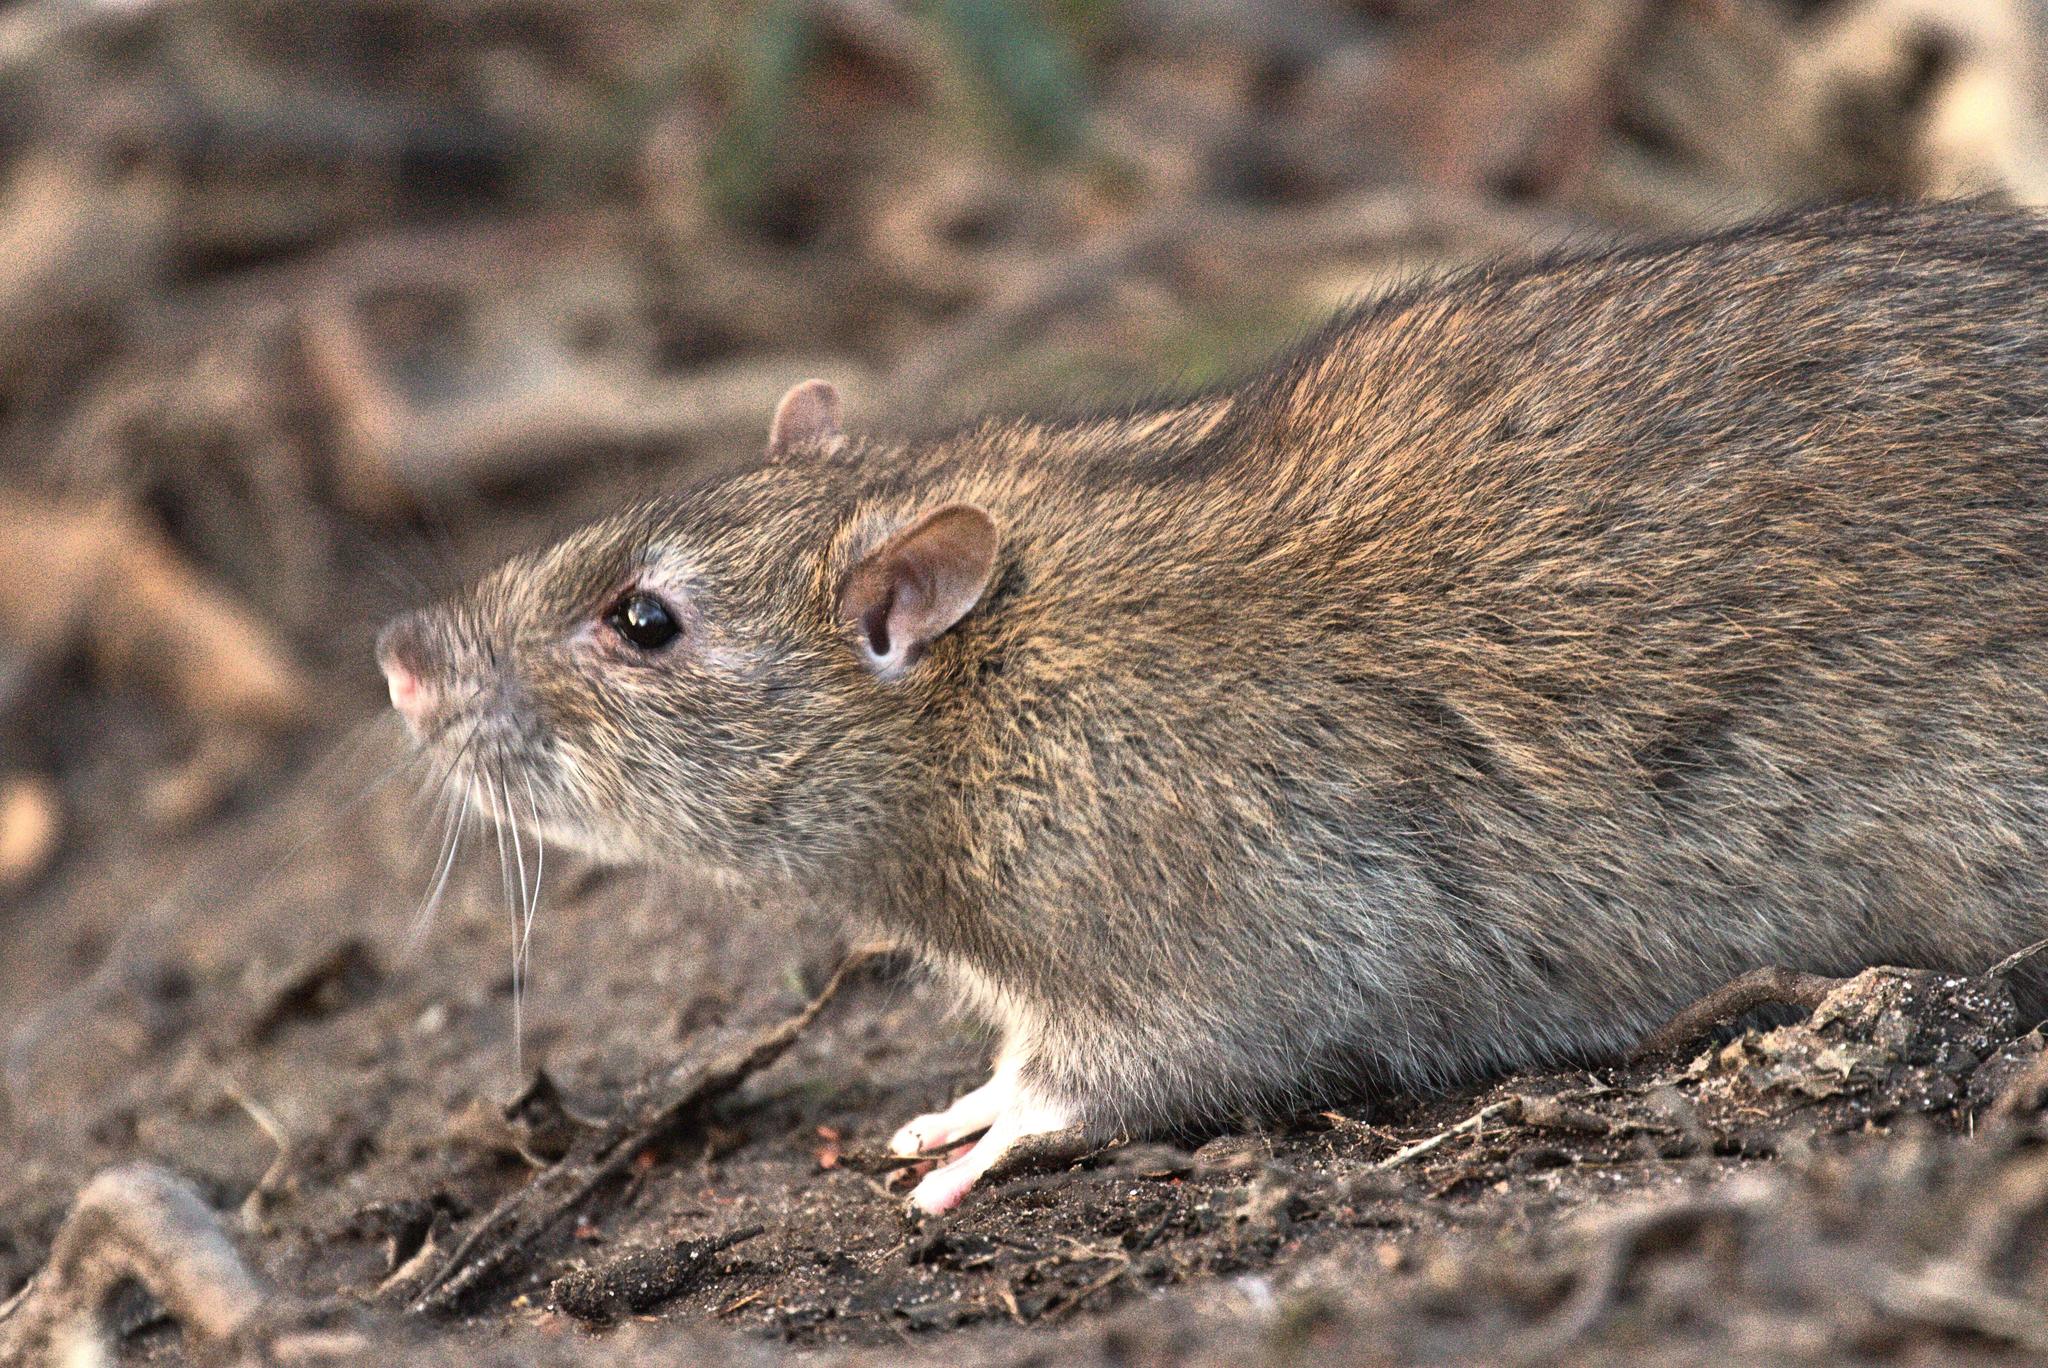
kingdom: Animalia
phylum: Chordata
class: Mammalia
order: Rodentia
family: Muridae
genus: Rattus
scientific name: Rattus norvegicus
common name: Brown rat
